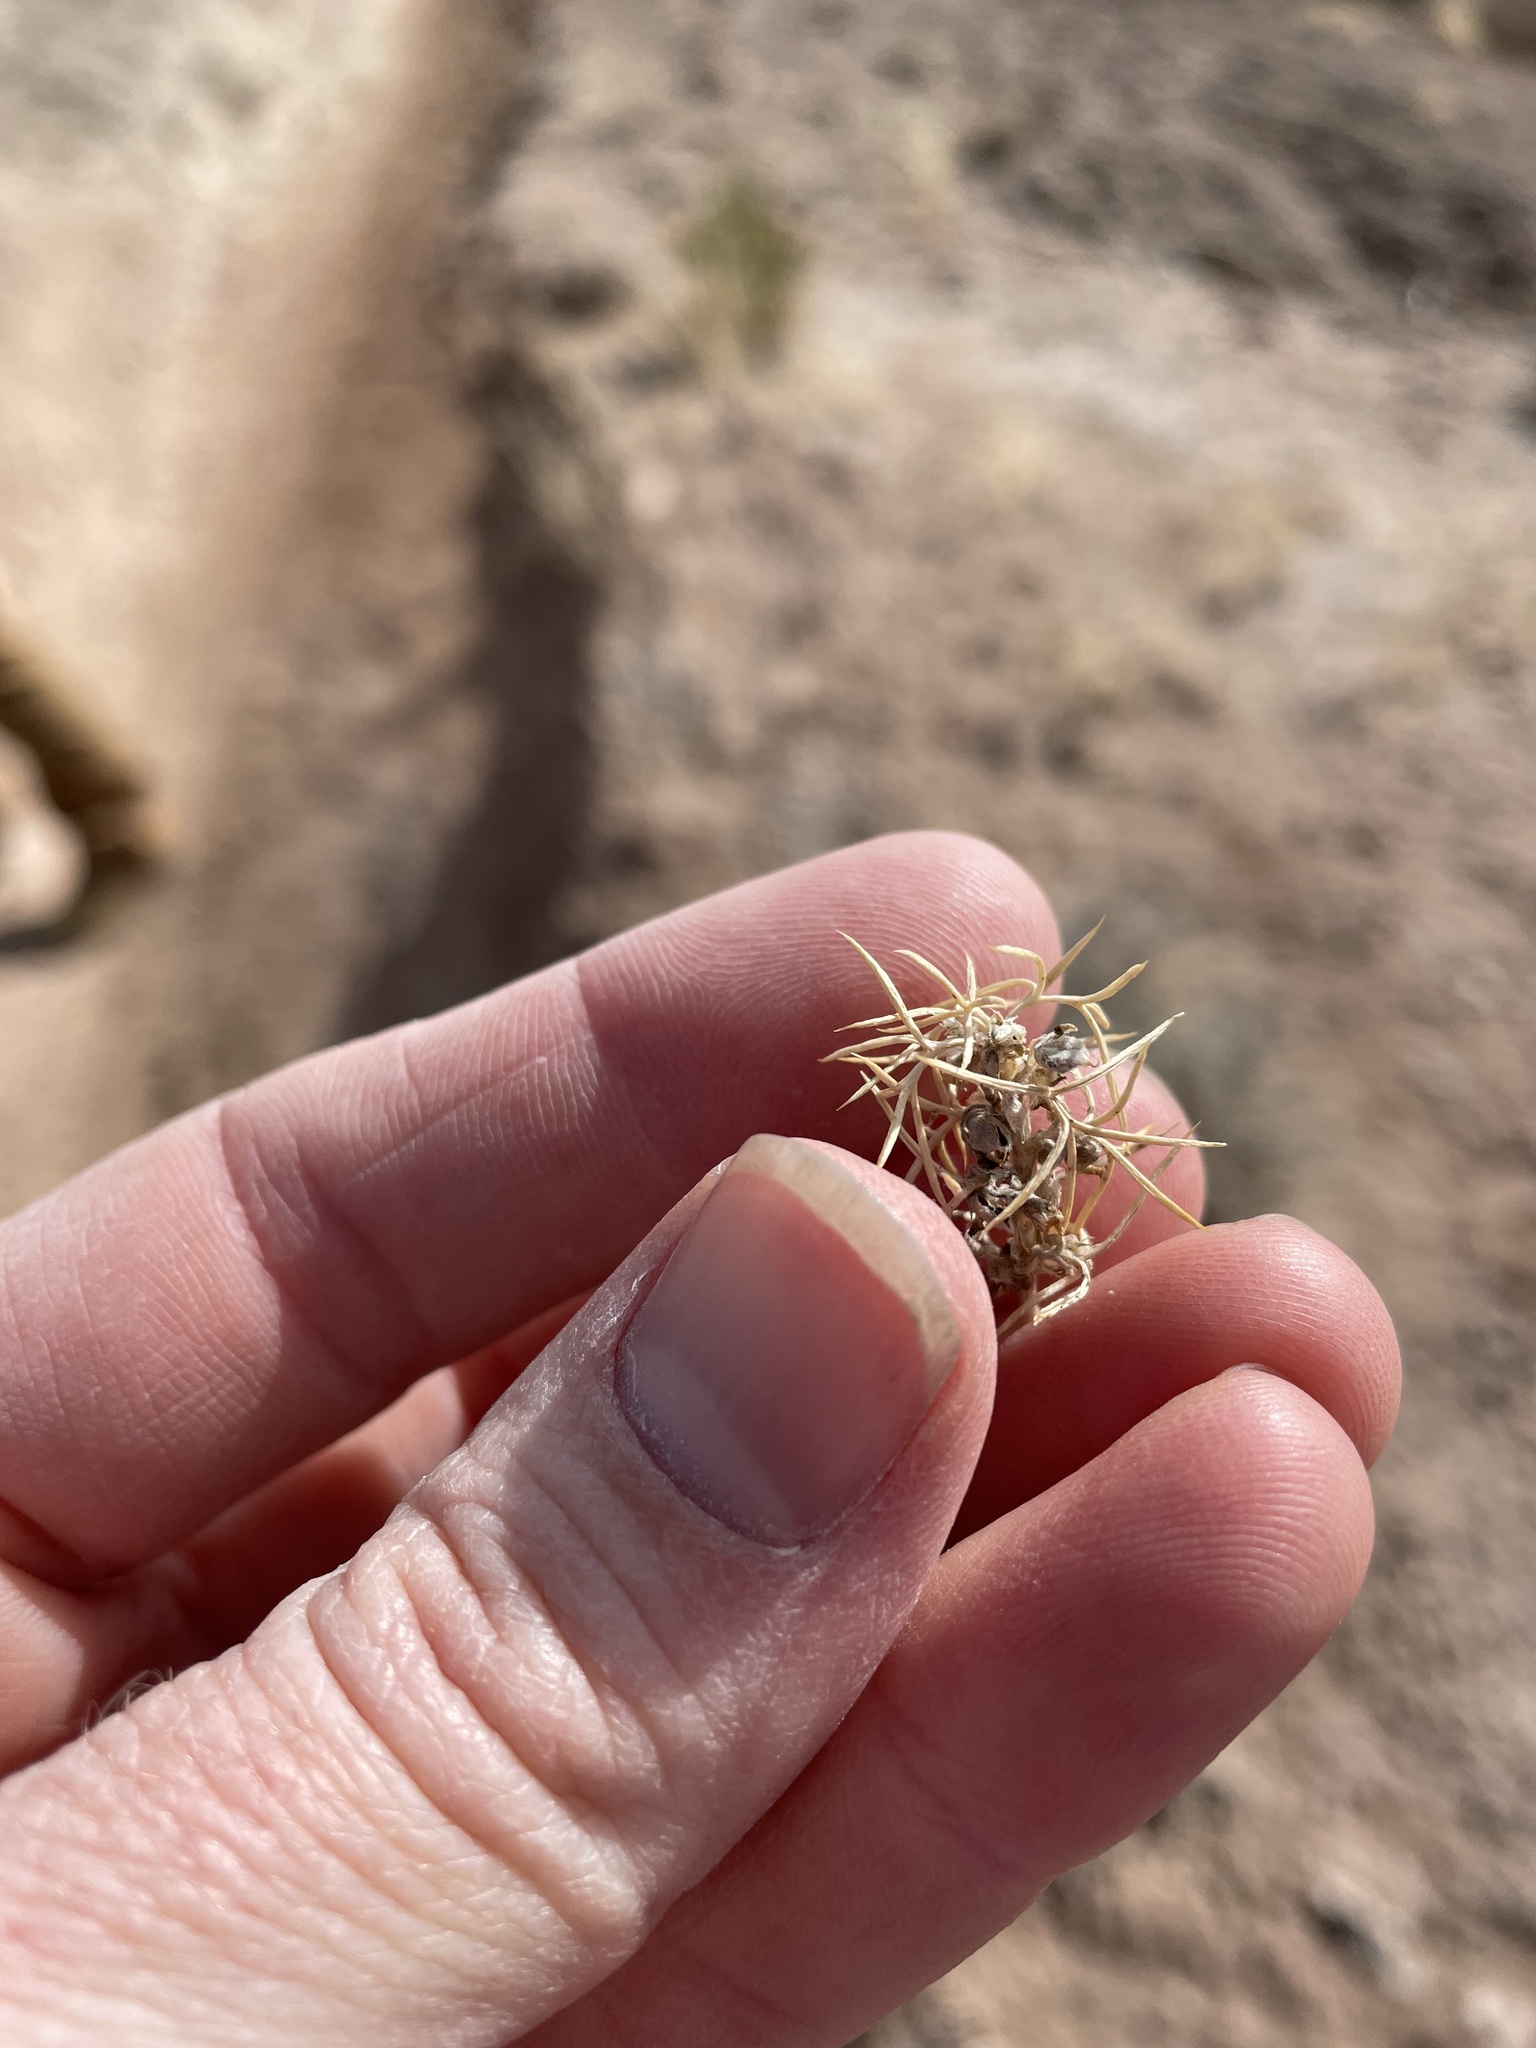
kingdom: Plantae
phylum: Tracheophyta
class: Magnoliopsida
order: Fabales
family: Fabaceae
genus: Astragalus
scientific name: Astragalus kentrophyta
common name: Prickly milk-vetch
